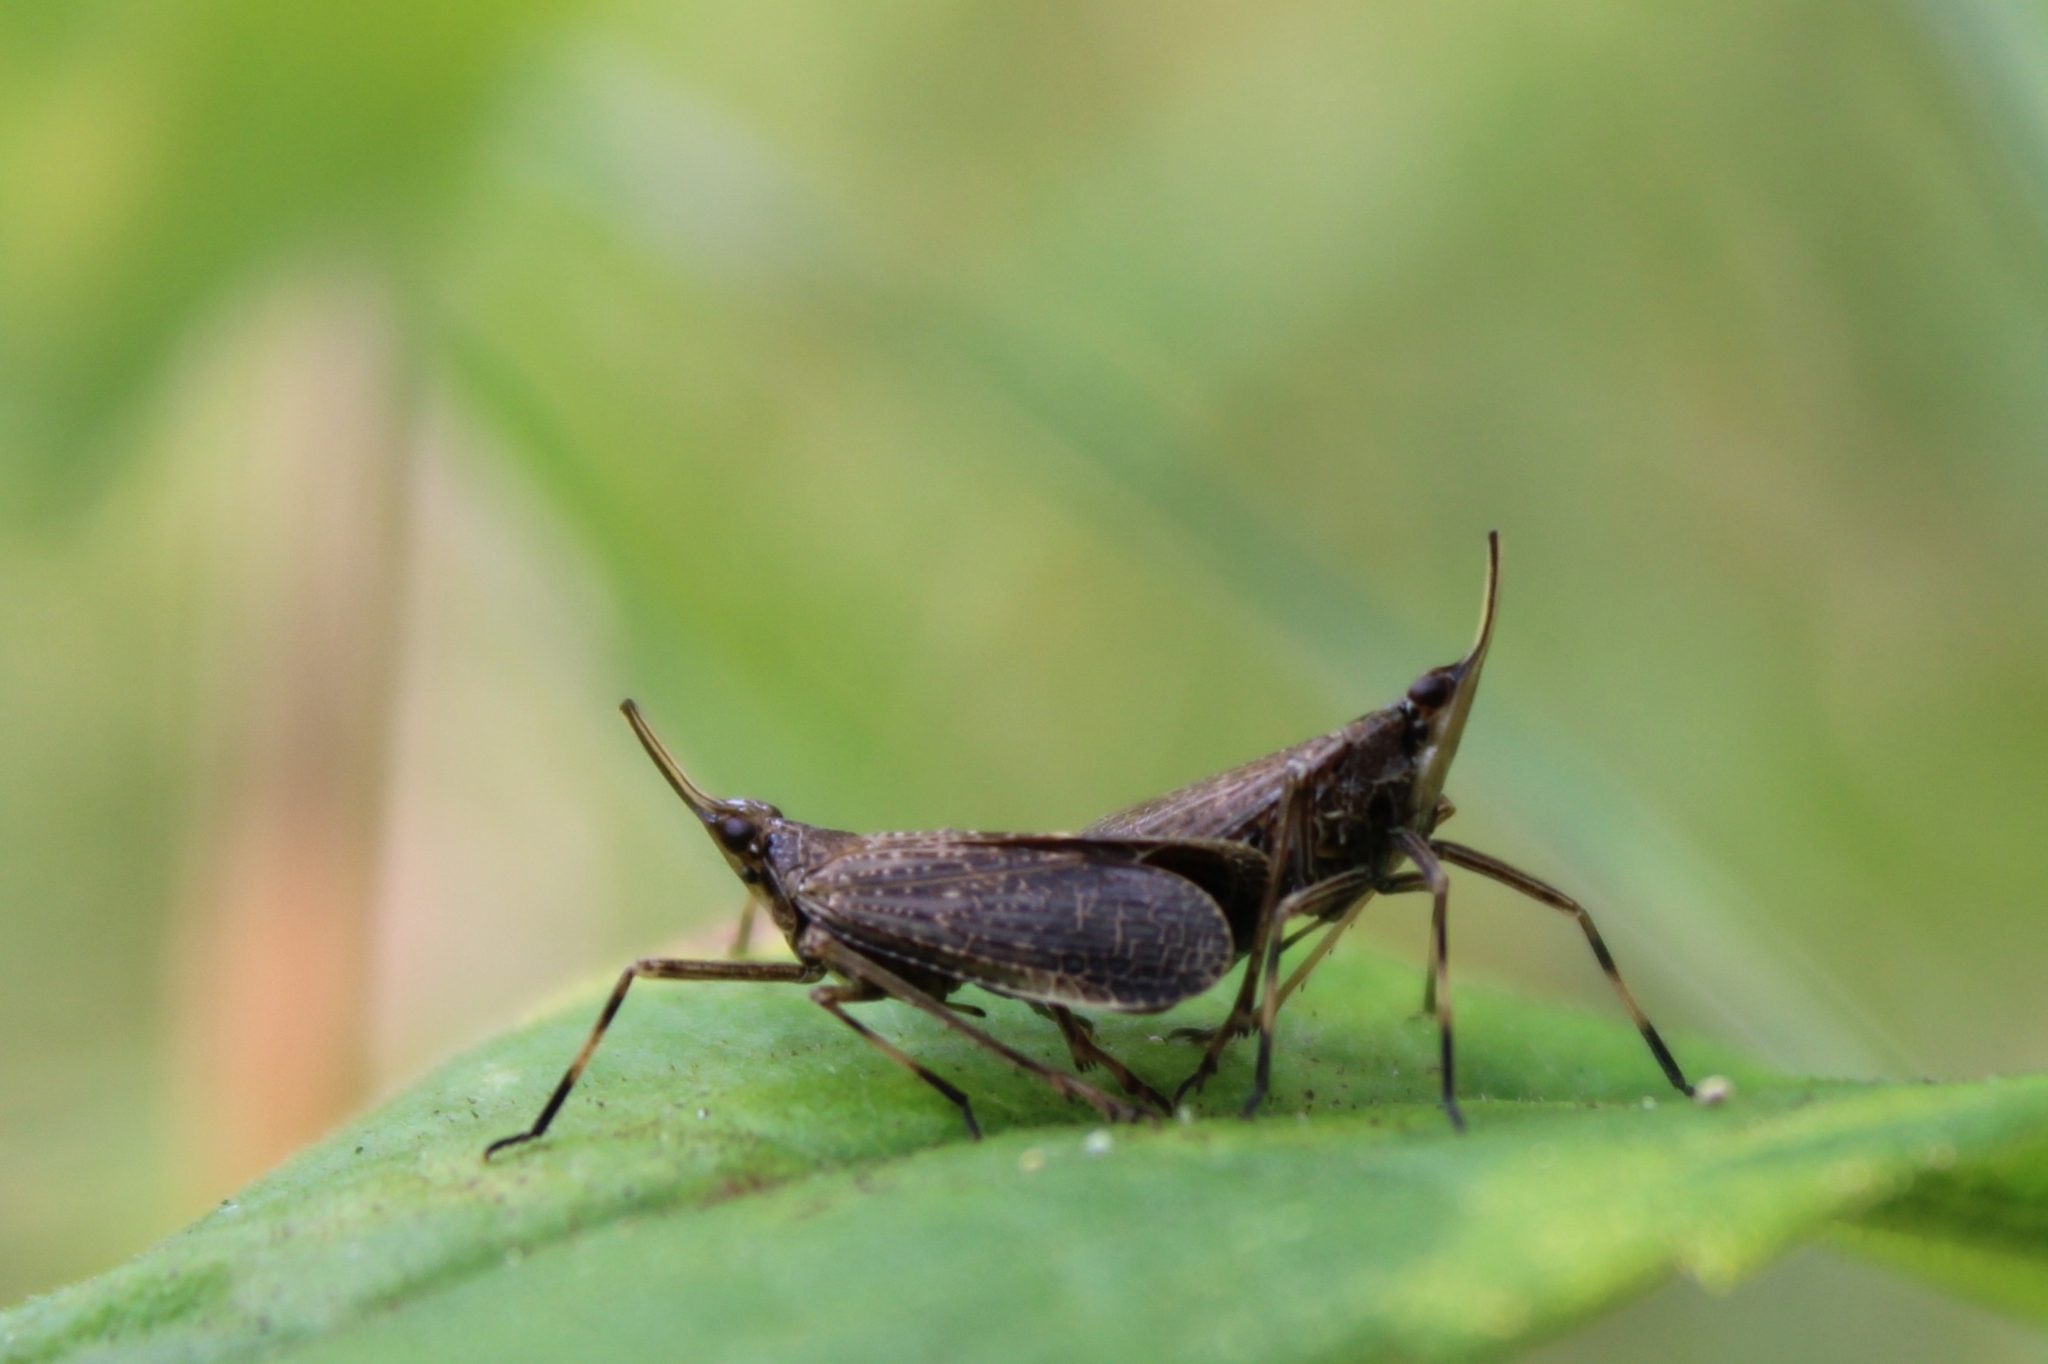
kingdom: Animalia
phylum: Arthropoda
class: Insecta
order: Hemiptera
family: Dictyopharidae
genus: Scolops
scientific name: Scolops sulcipes
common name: Partridge planthopper
